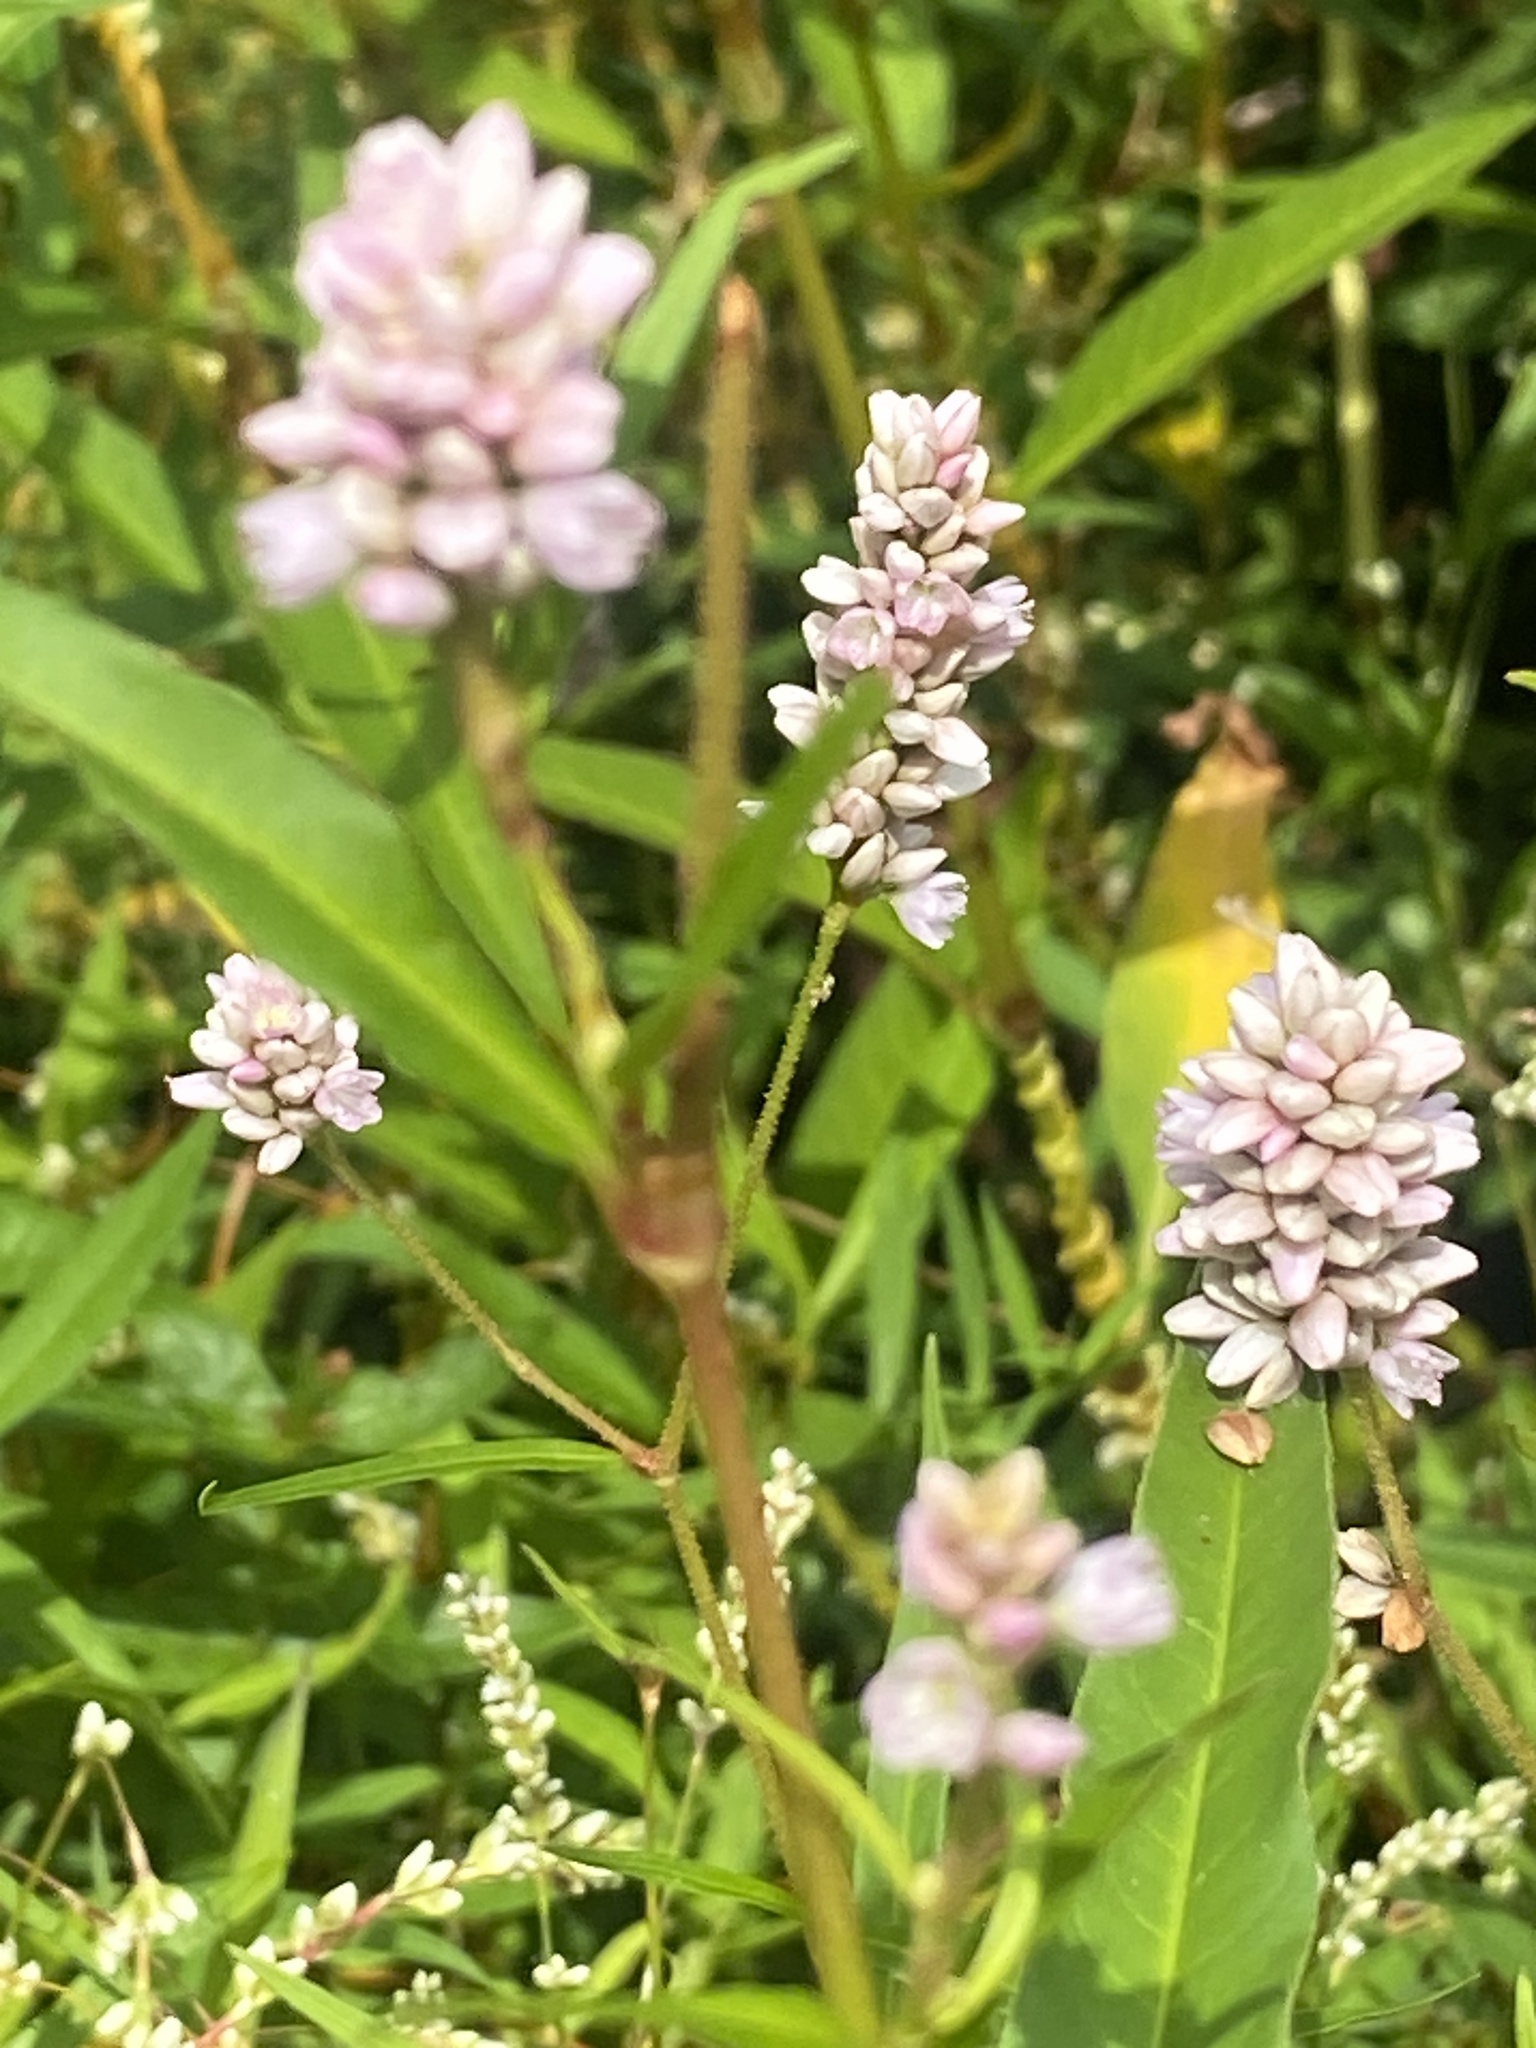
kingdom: Plantae
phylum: Tracheophyta
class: Magnoliopsida
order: Caryophyllales
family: Polygonaceae
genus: Persicaria
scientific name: Persicaria pensylvanica
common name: Pinkweed
